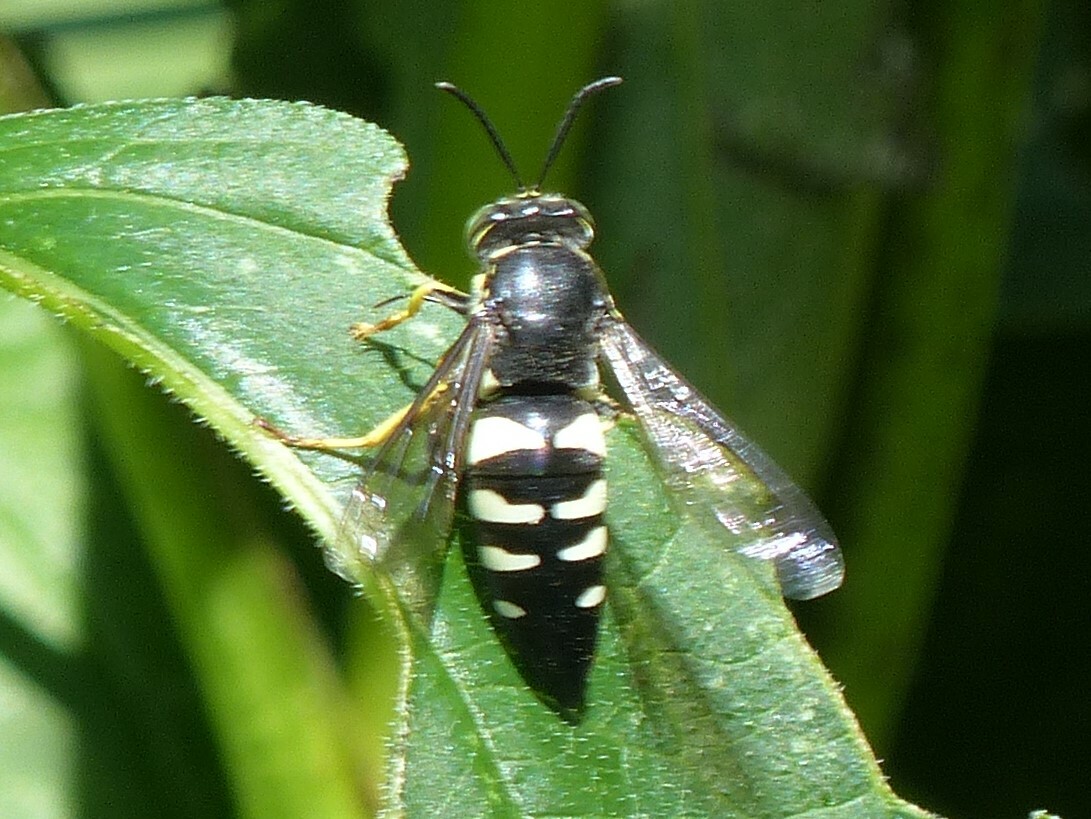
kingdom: Animalia
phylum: Arthropoda
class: Insecta
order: Hymenoptera
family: Crabronidae
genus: Bicyrtes
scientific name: Bicyrtes quadrifasciatus
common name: Four-banded stink bug hunter wasp
